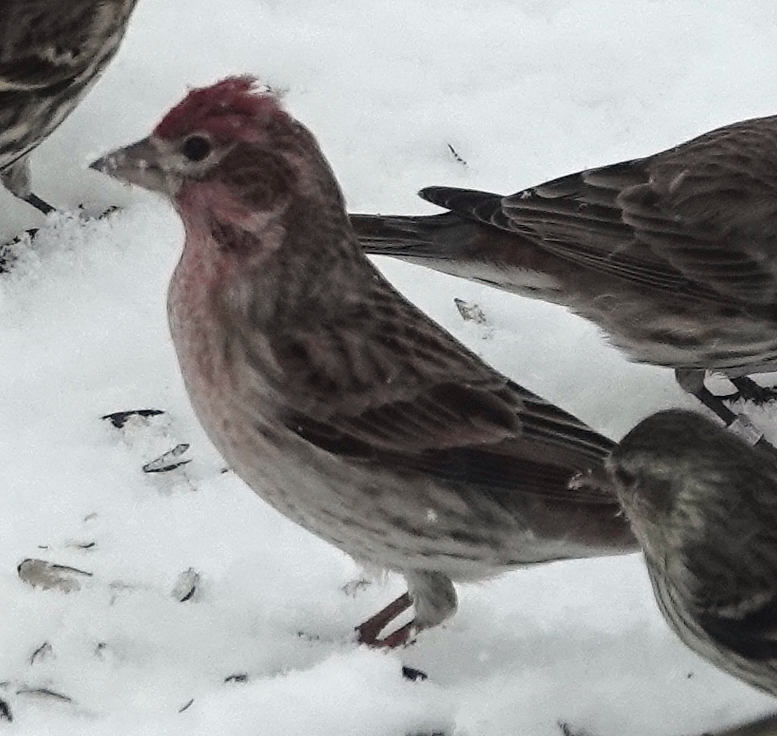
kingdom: Animalia
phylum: Chordata
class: Aves
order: Passeriformes
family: Fringillidae
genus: Haemorhous
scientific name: Haemorhous cassinii
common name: Cassin's finch
